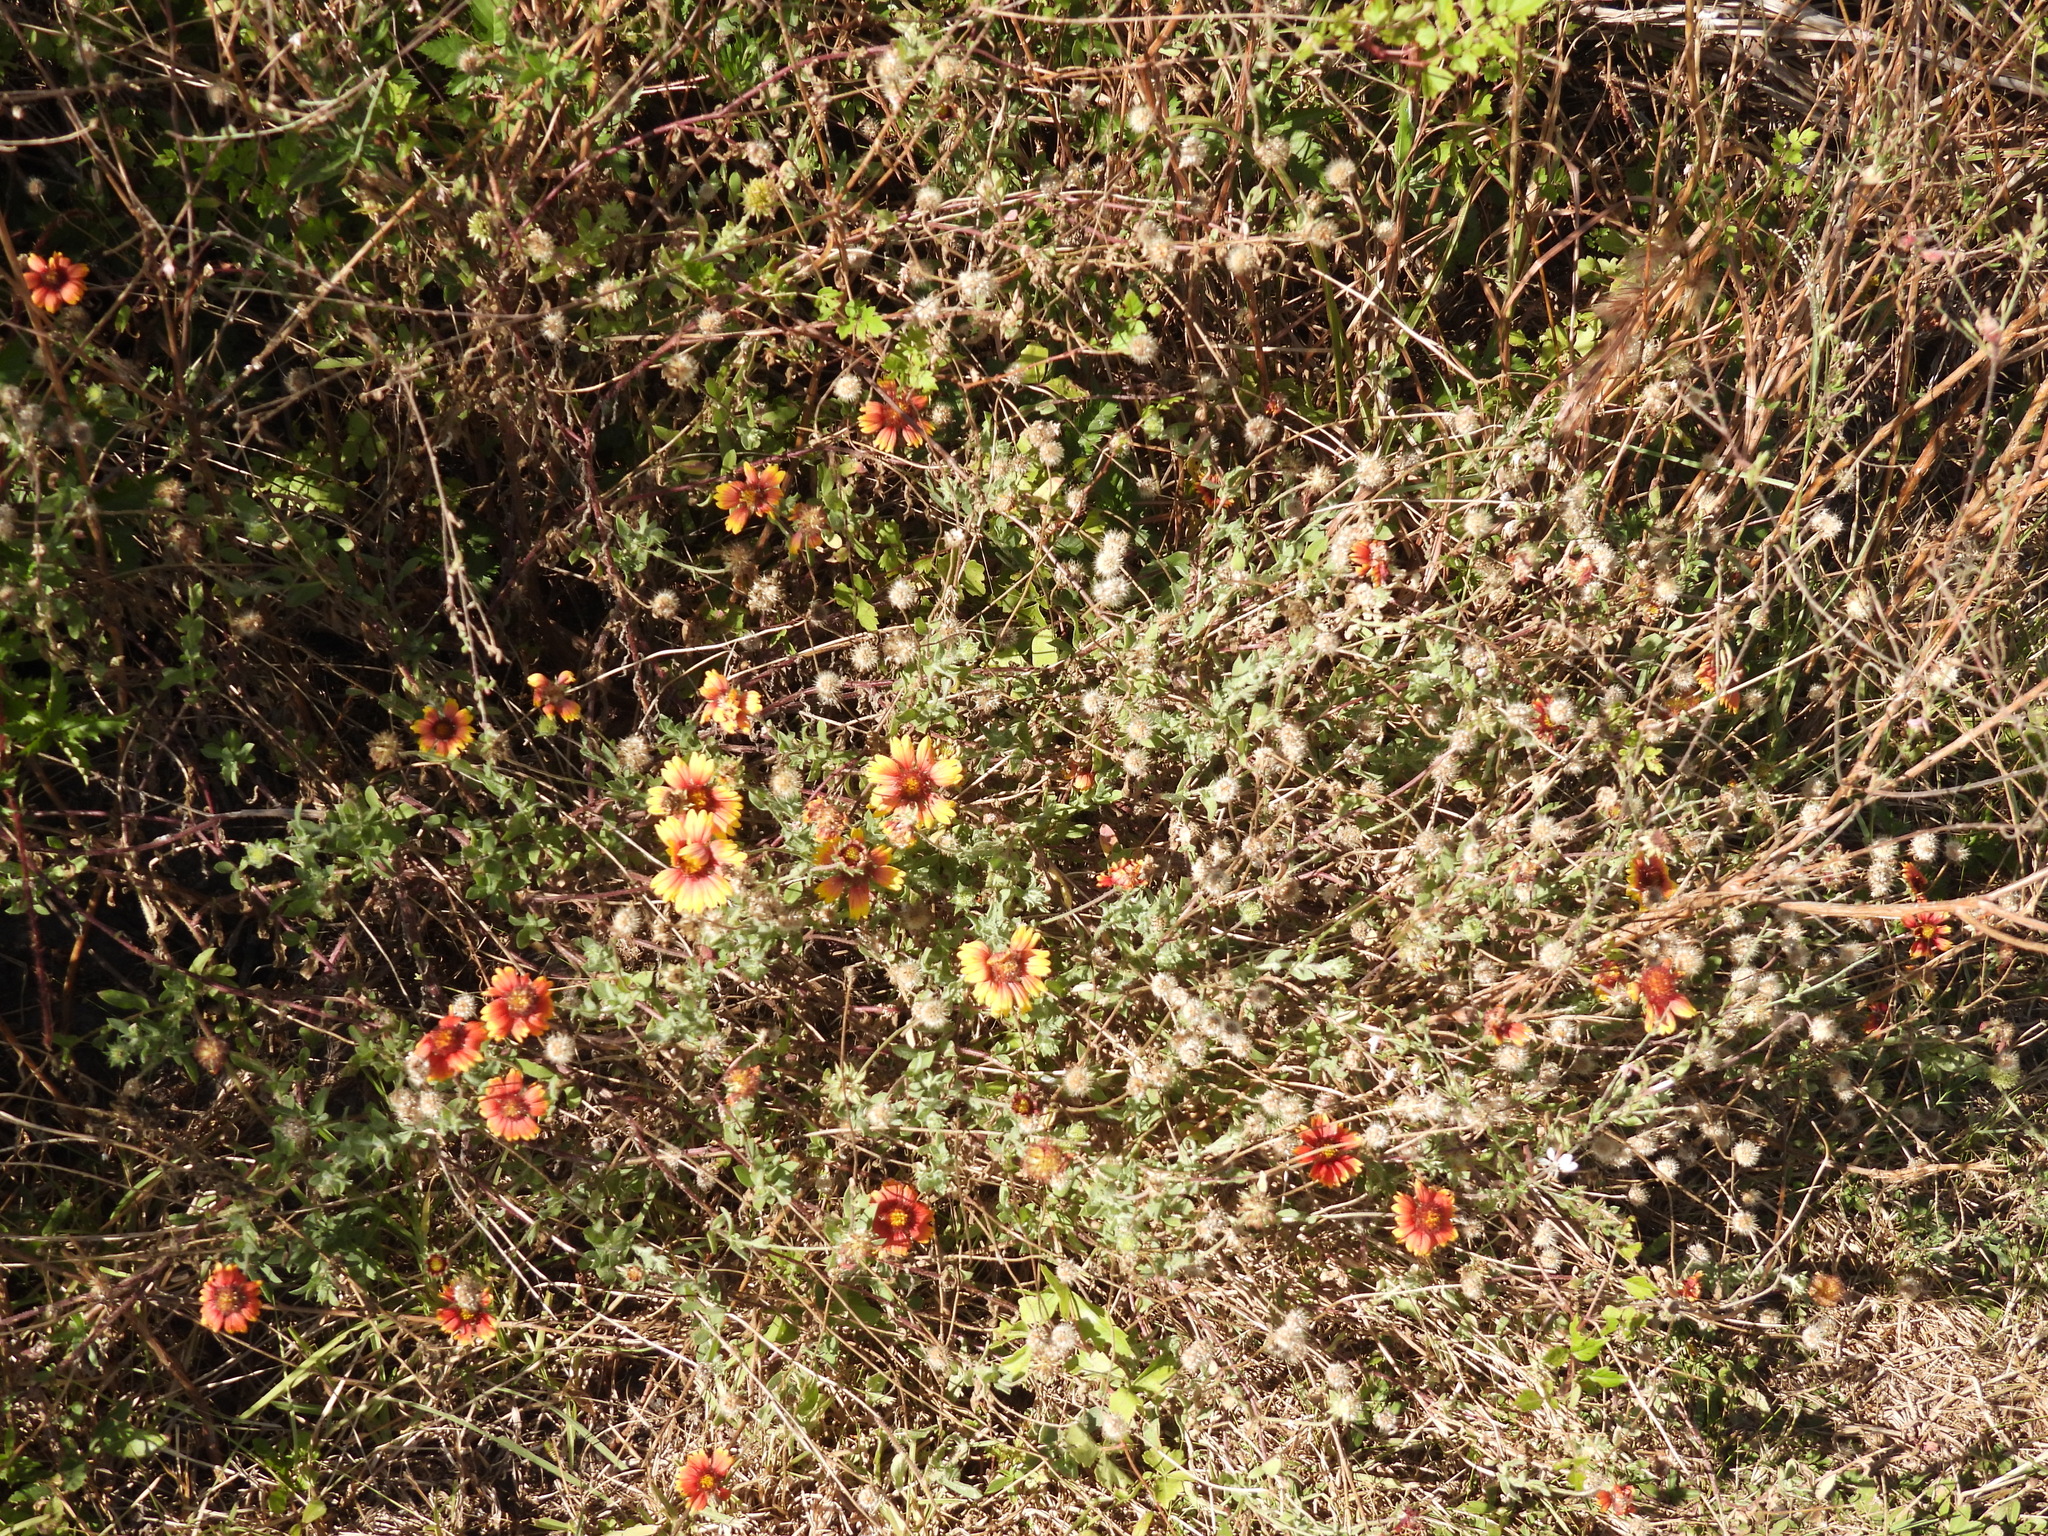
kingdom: Plantae
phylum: Tracheophyta
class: Magnoliopsida
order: Asterales
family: Asteraceae
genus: Gaillardia
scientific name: Gaillardia pulchella
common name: Firewheel
